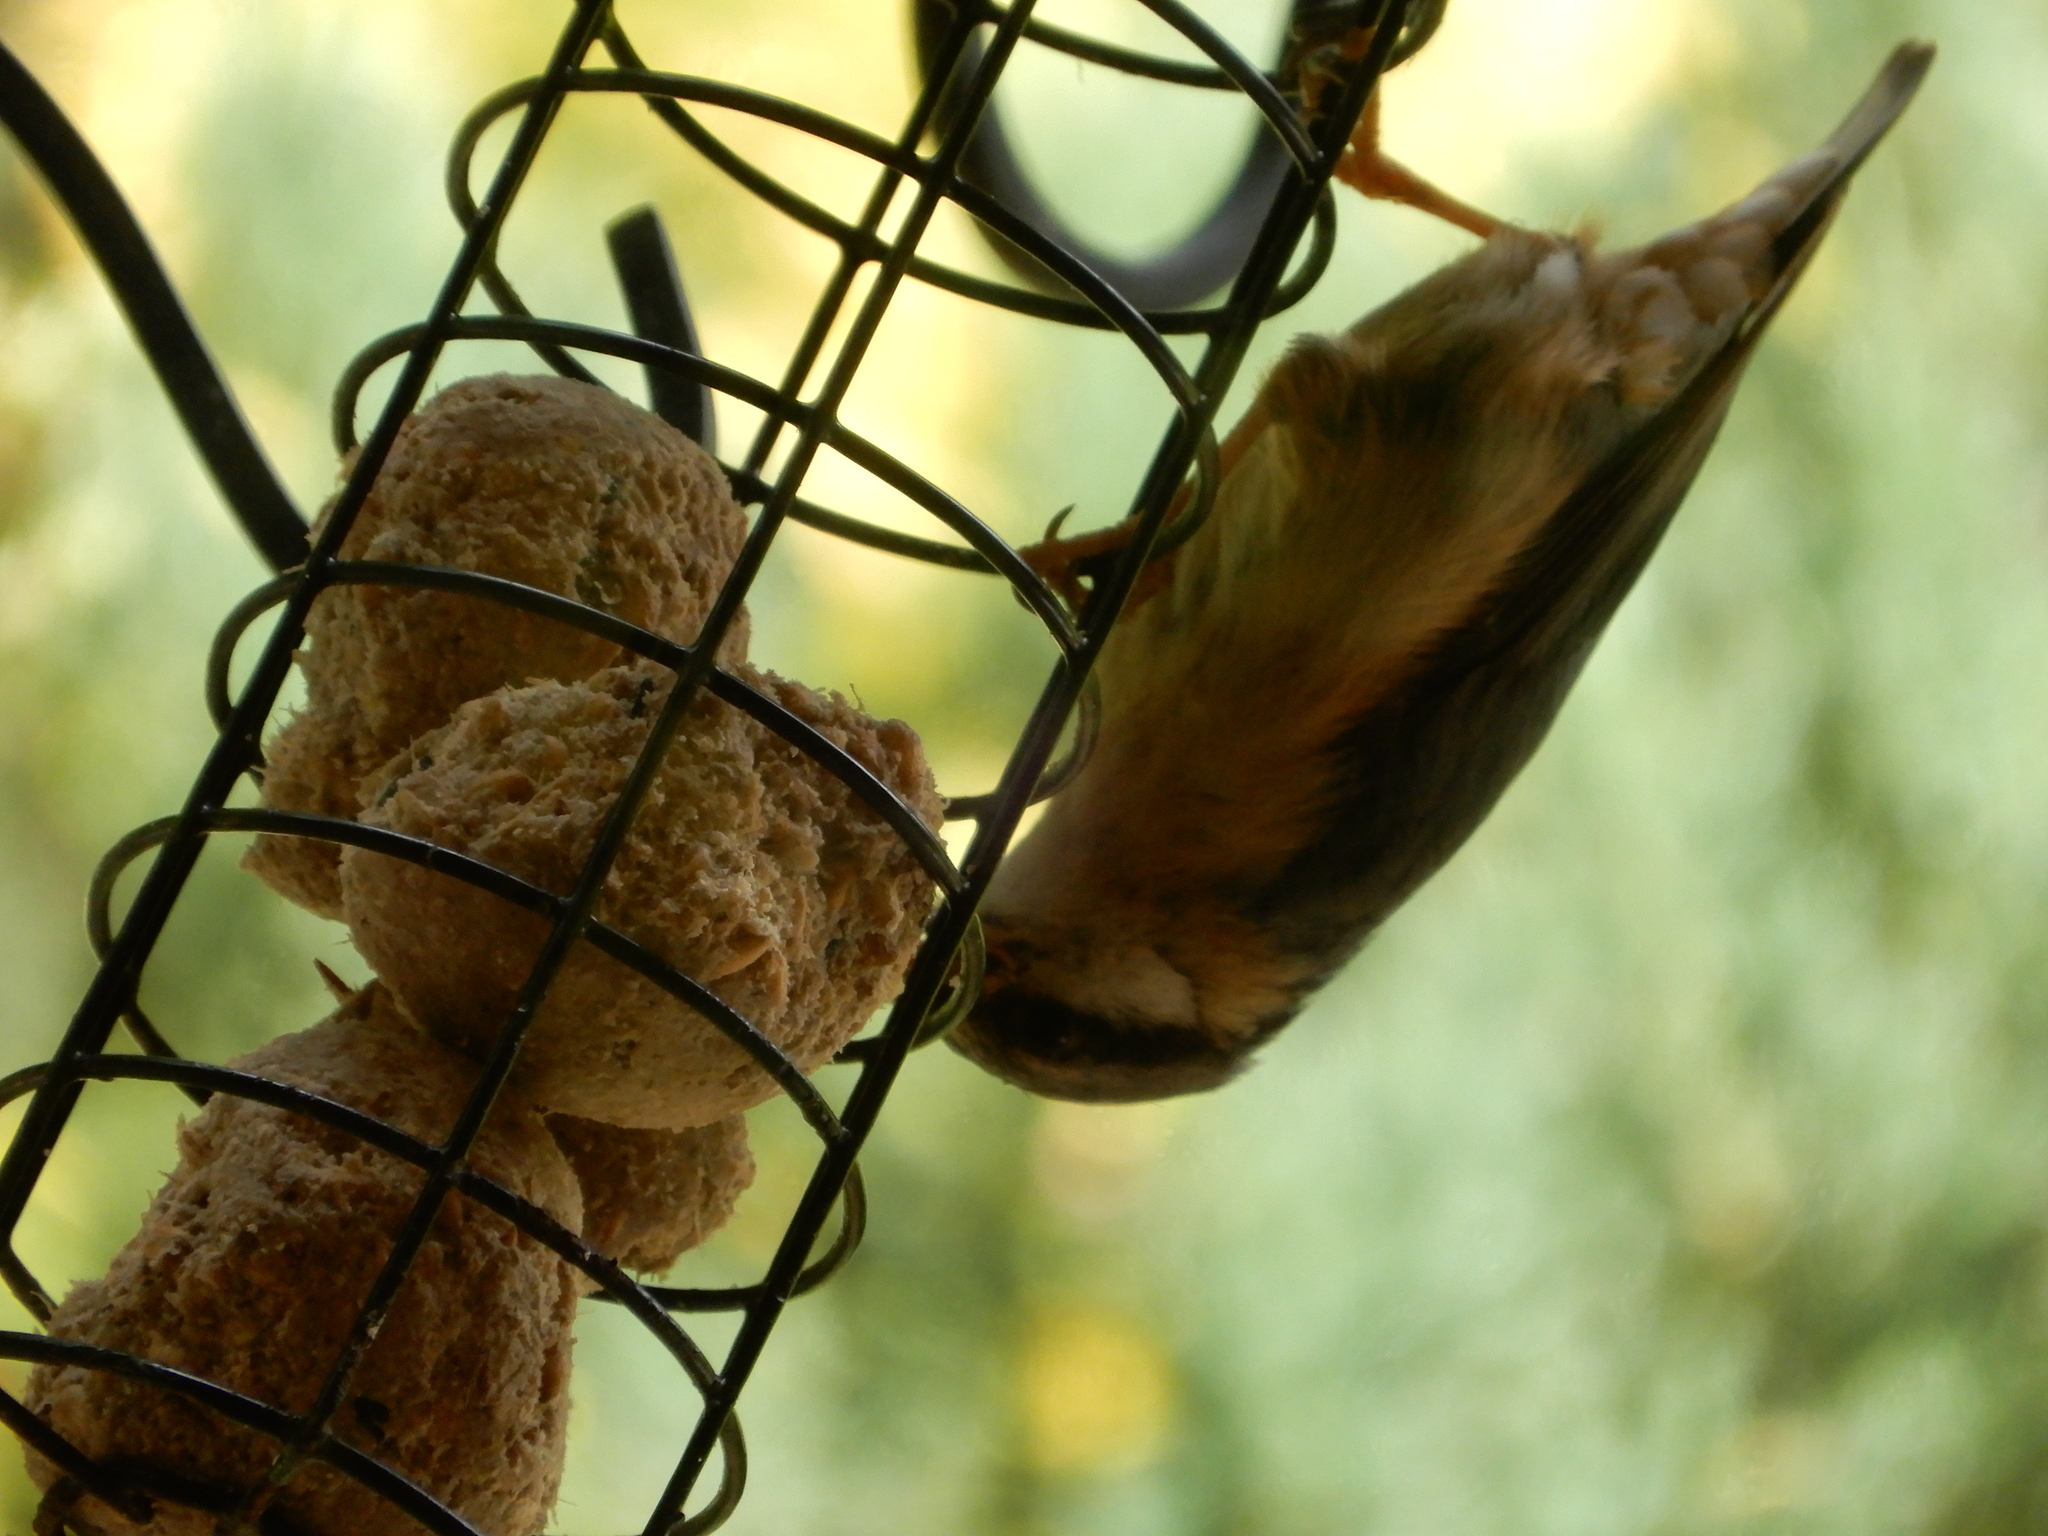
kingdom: Animalia
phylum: Chordata
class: Aves
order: Passeriformes
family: Sittidae
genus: Sitta
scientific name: Sitta europaea
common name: Eurasian nuthatch
